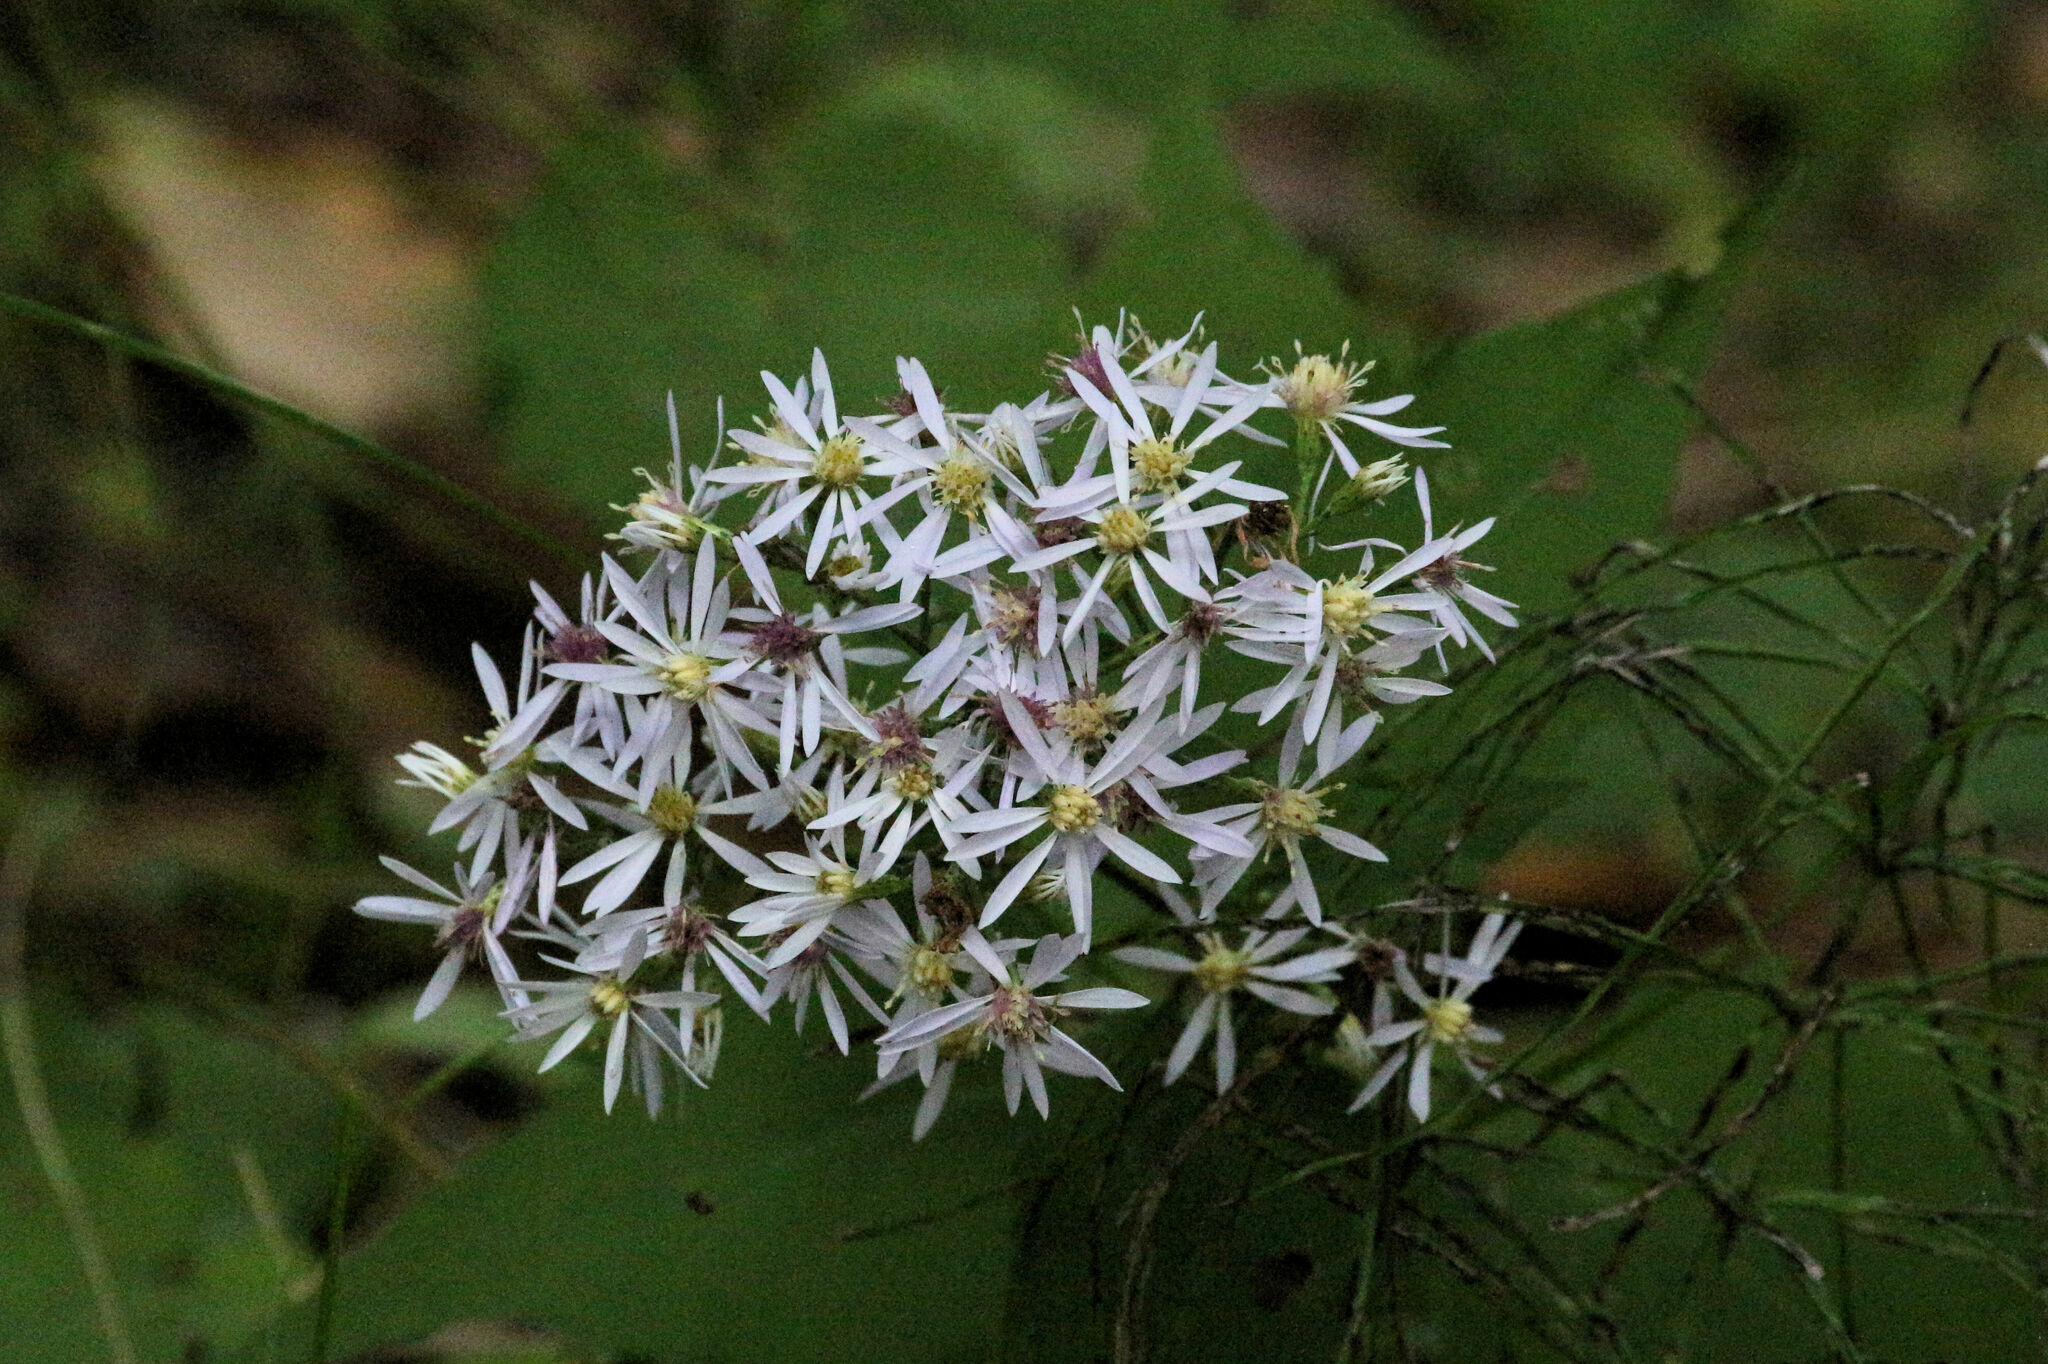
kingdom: Plantae
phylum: Tracheophyta
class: Magnoliopsida
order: Asterales
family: Asteraceae
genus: Symphyotrichum
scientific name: Symphyotrichum cordifolium
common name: Beeweed
